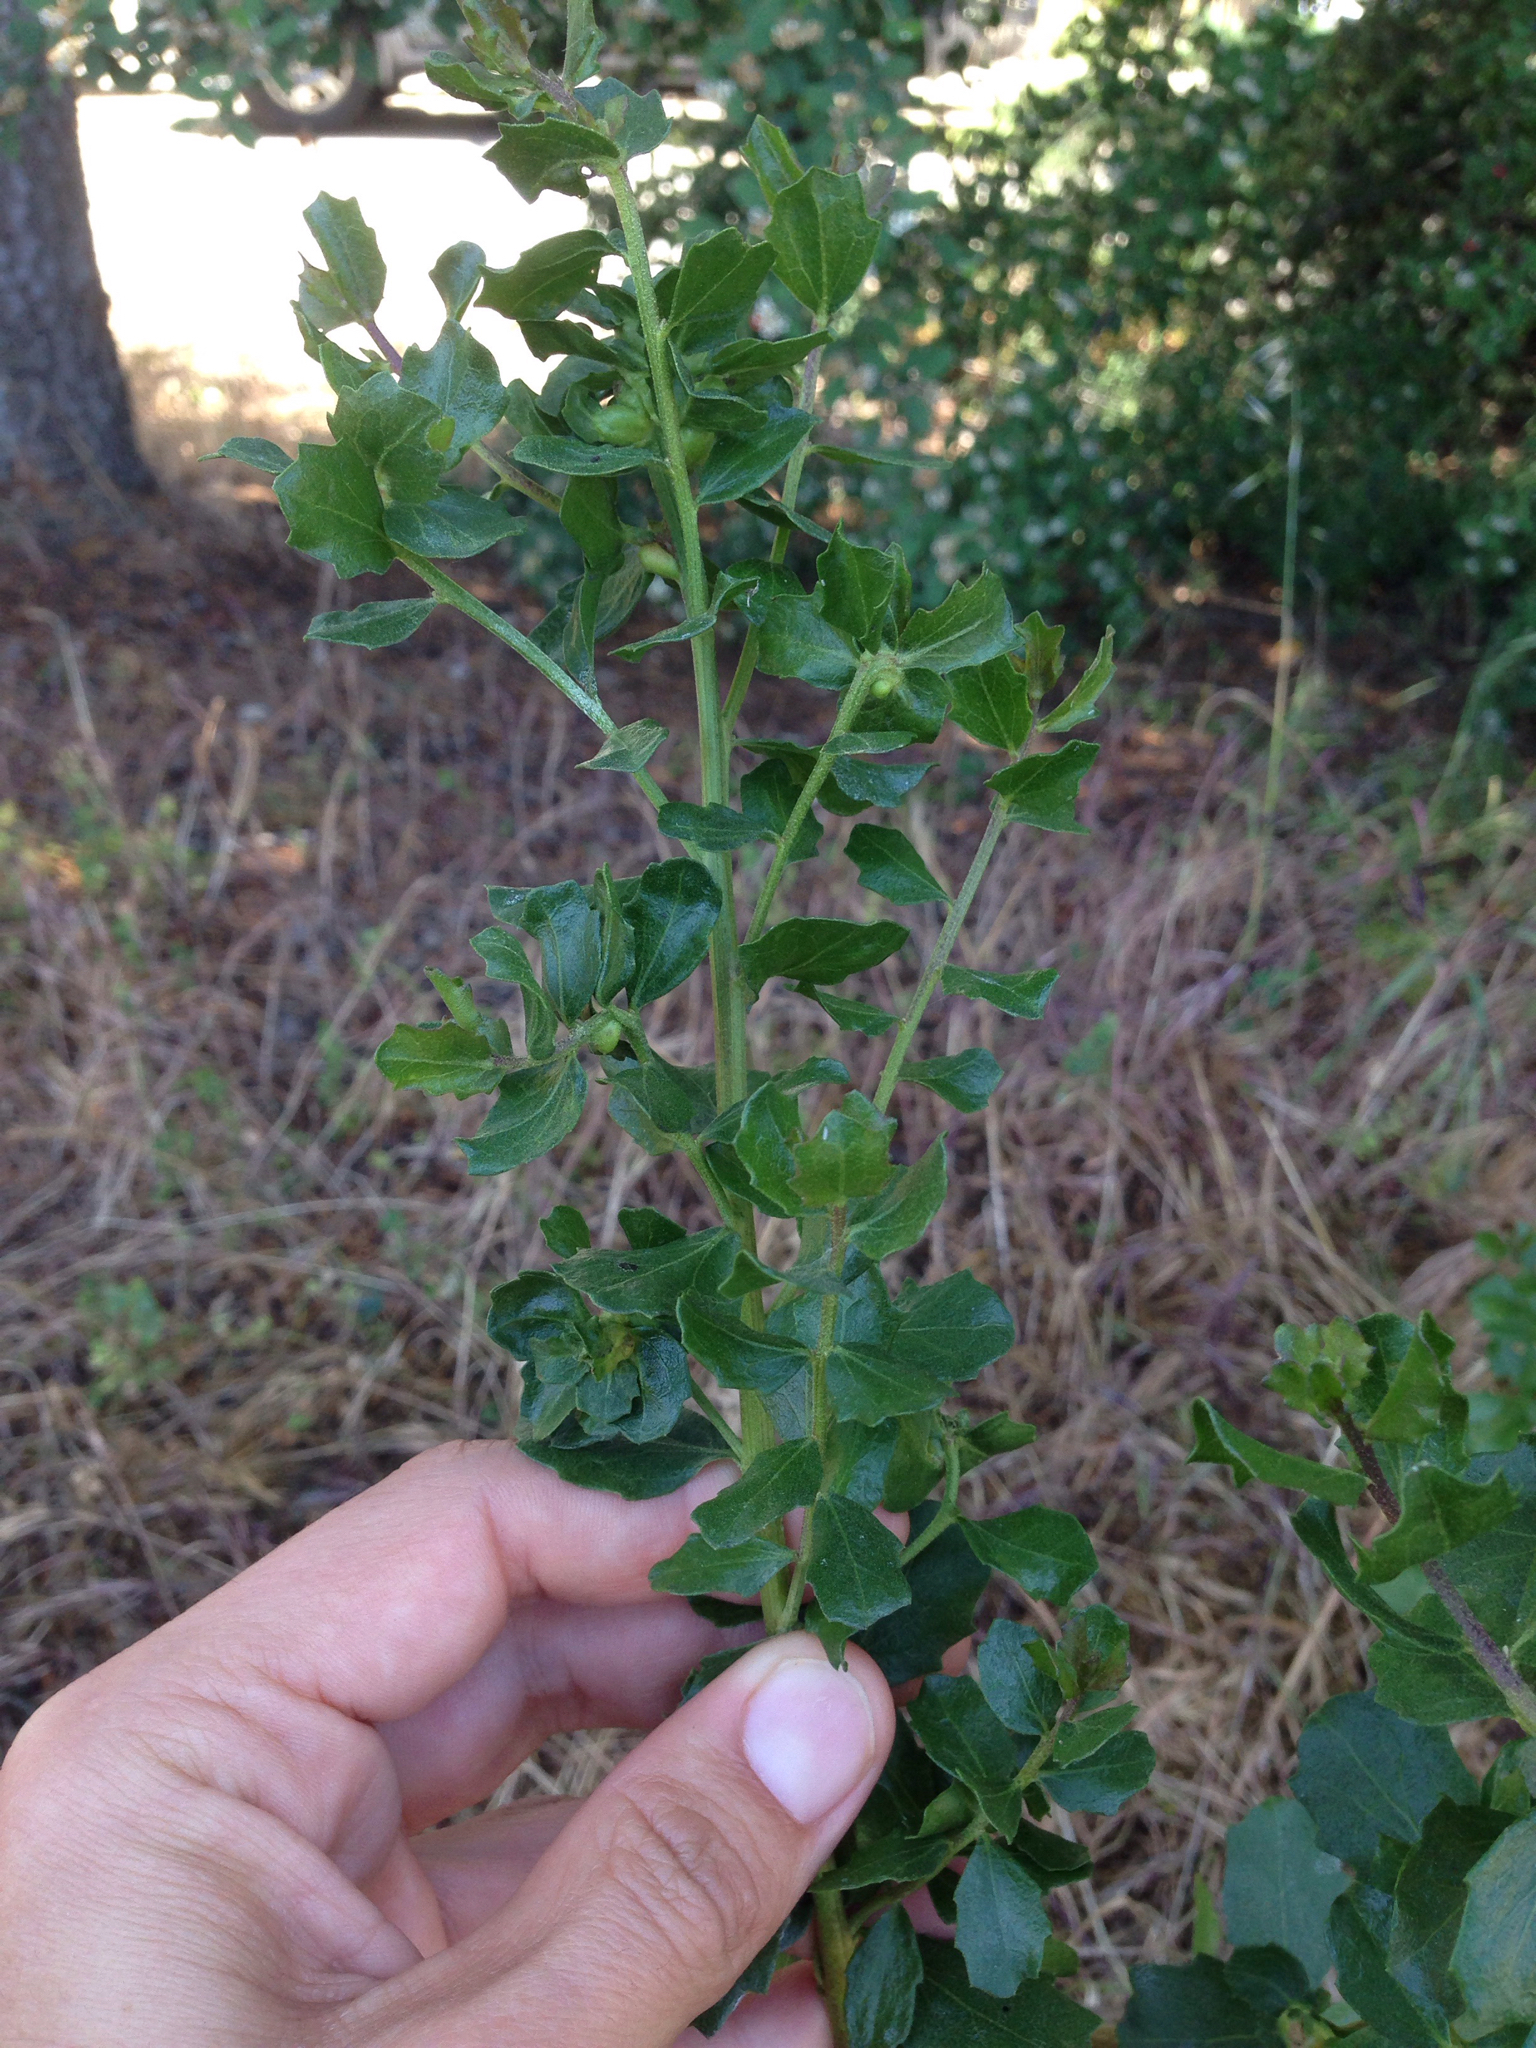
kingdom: Plantae
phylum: Tracheophyta
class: Magnoliopsida
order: Asterales
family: Asteraceae
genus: Baccharis
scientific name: Baccharis pilularis
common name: Coyotebrush
